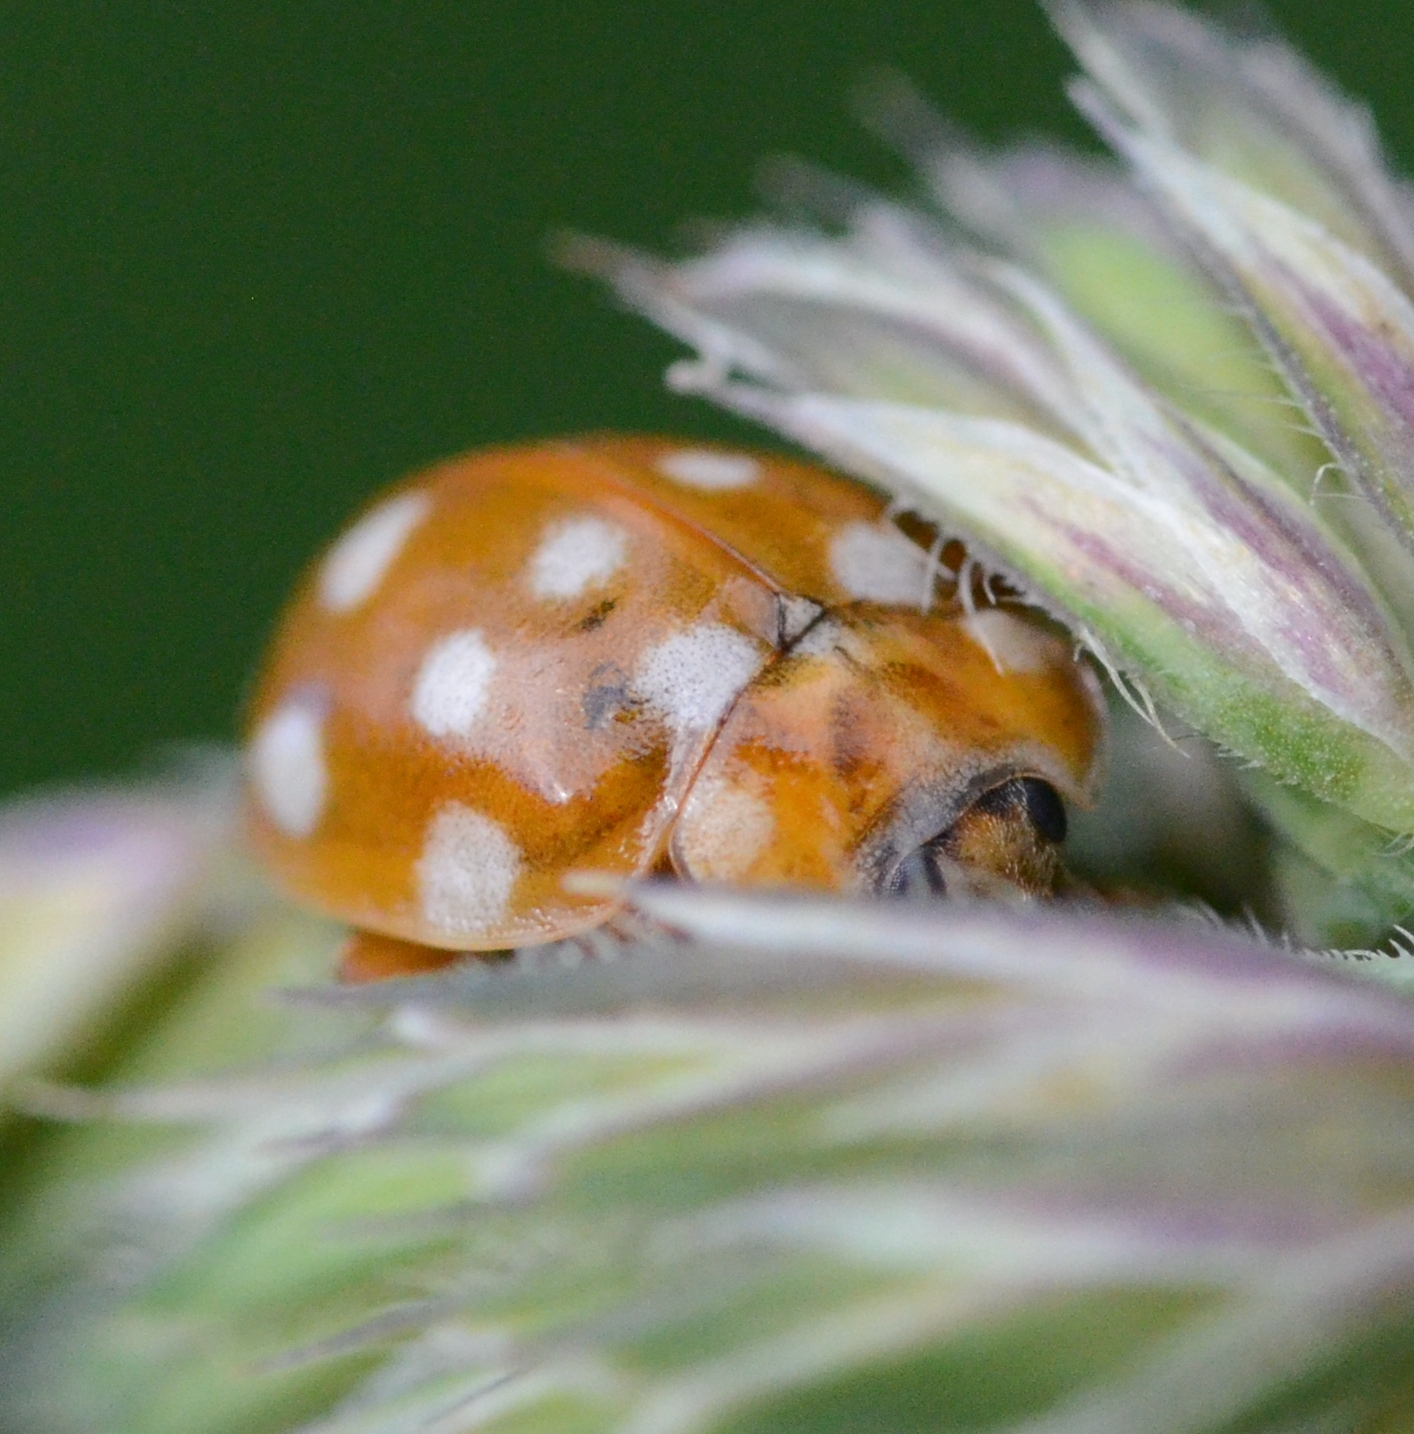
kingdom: Animalia
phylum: Arthropoda
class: Insecta
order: Coleoptera
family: Coccinellidae
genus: Calvia
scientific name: Calvia quatuordecimguttata
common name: Cream-spot ladybird
